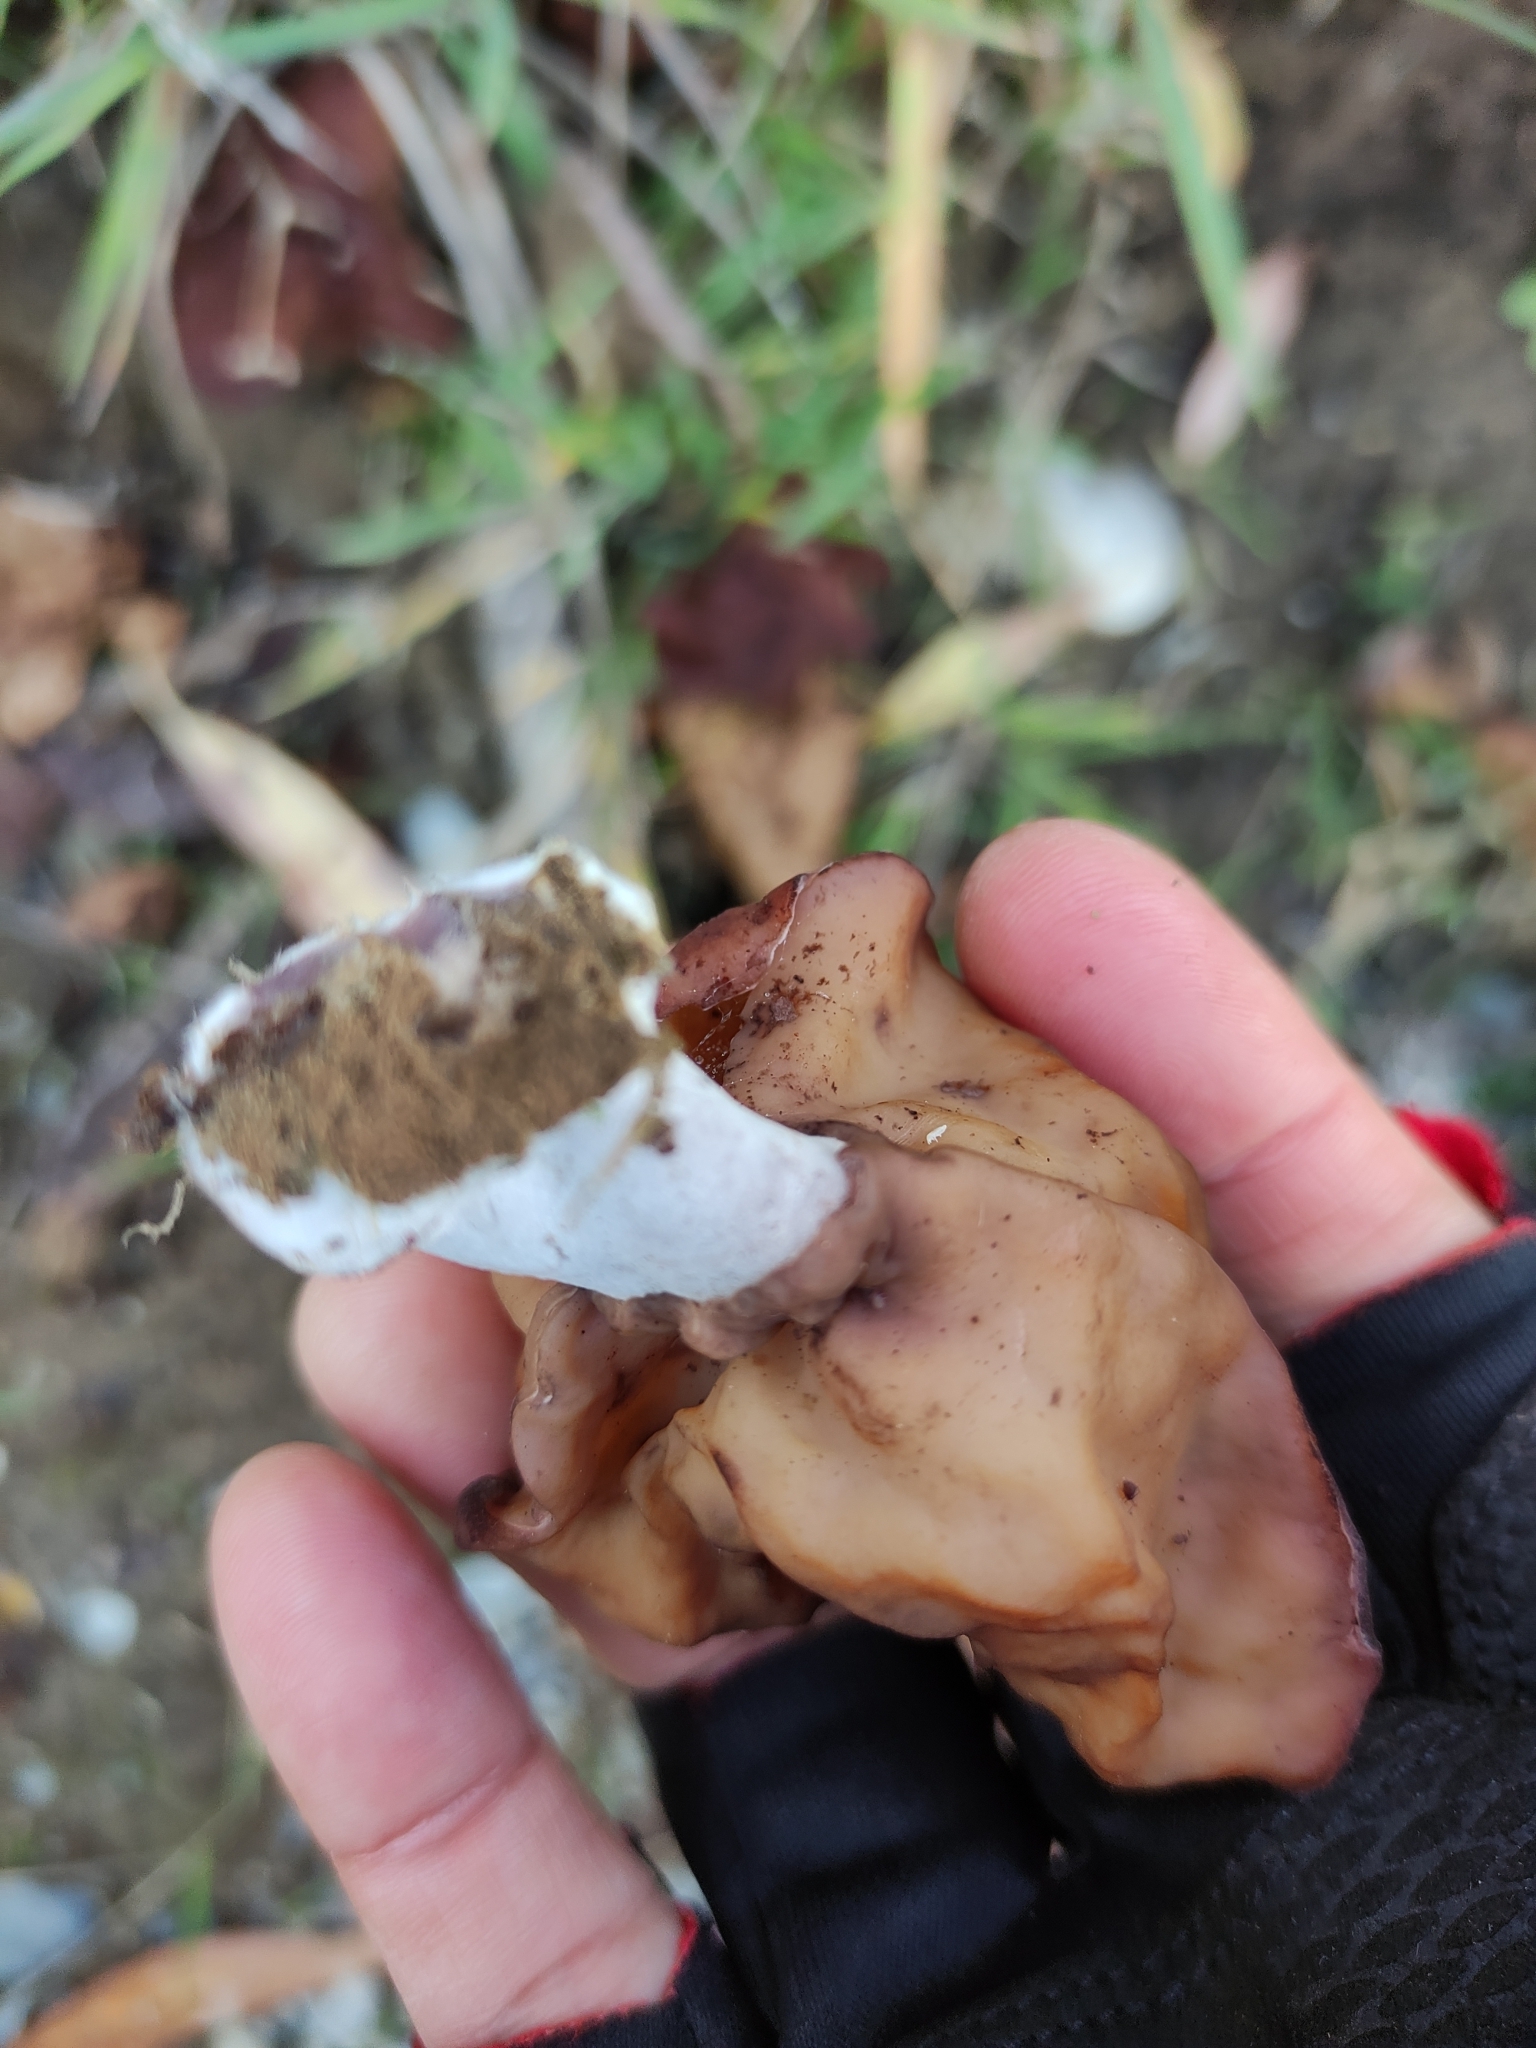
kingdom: Fungi
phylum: Ascomycota
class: Pezizomycetes
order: Pezizales
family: Discinaceae
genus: Gyromitra
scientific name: Gyromitra infula
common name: Pouched false morel
